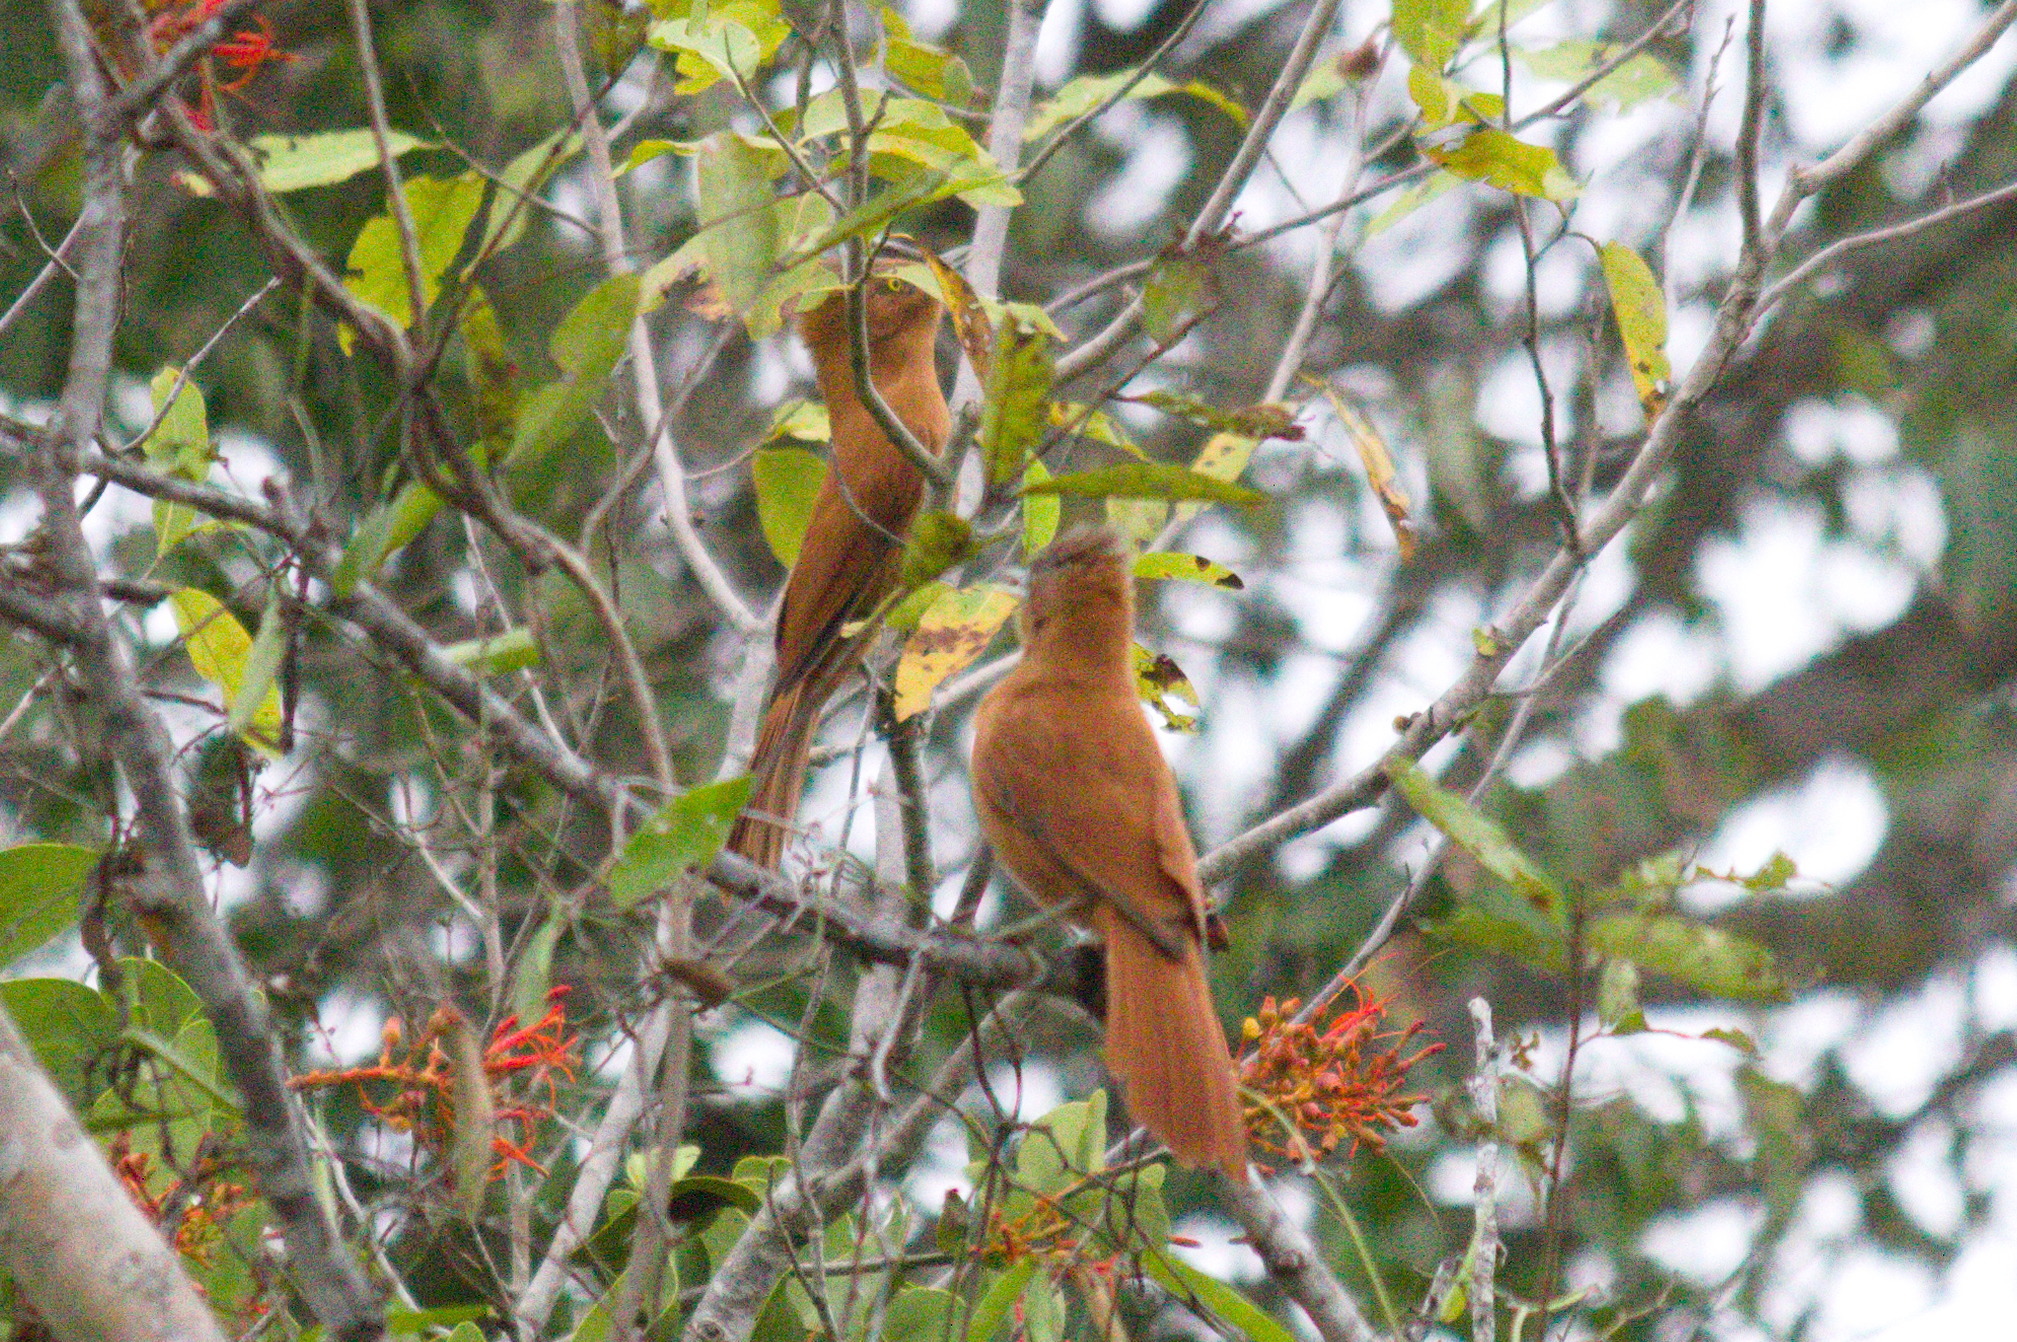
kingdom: Animalia
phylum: Chordata
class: Aves
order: Passeriformes
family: Furnariidae
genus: Pseudoseisura
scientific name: Pseudoseisura unirufa
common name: Grey-crested cacholote
